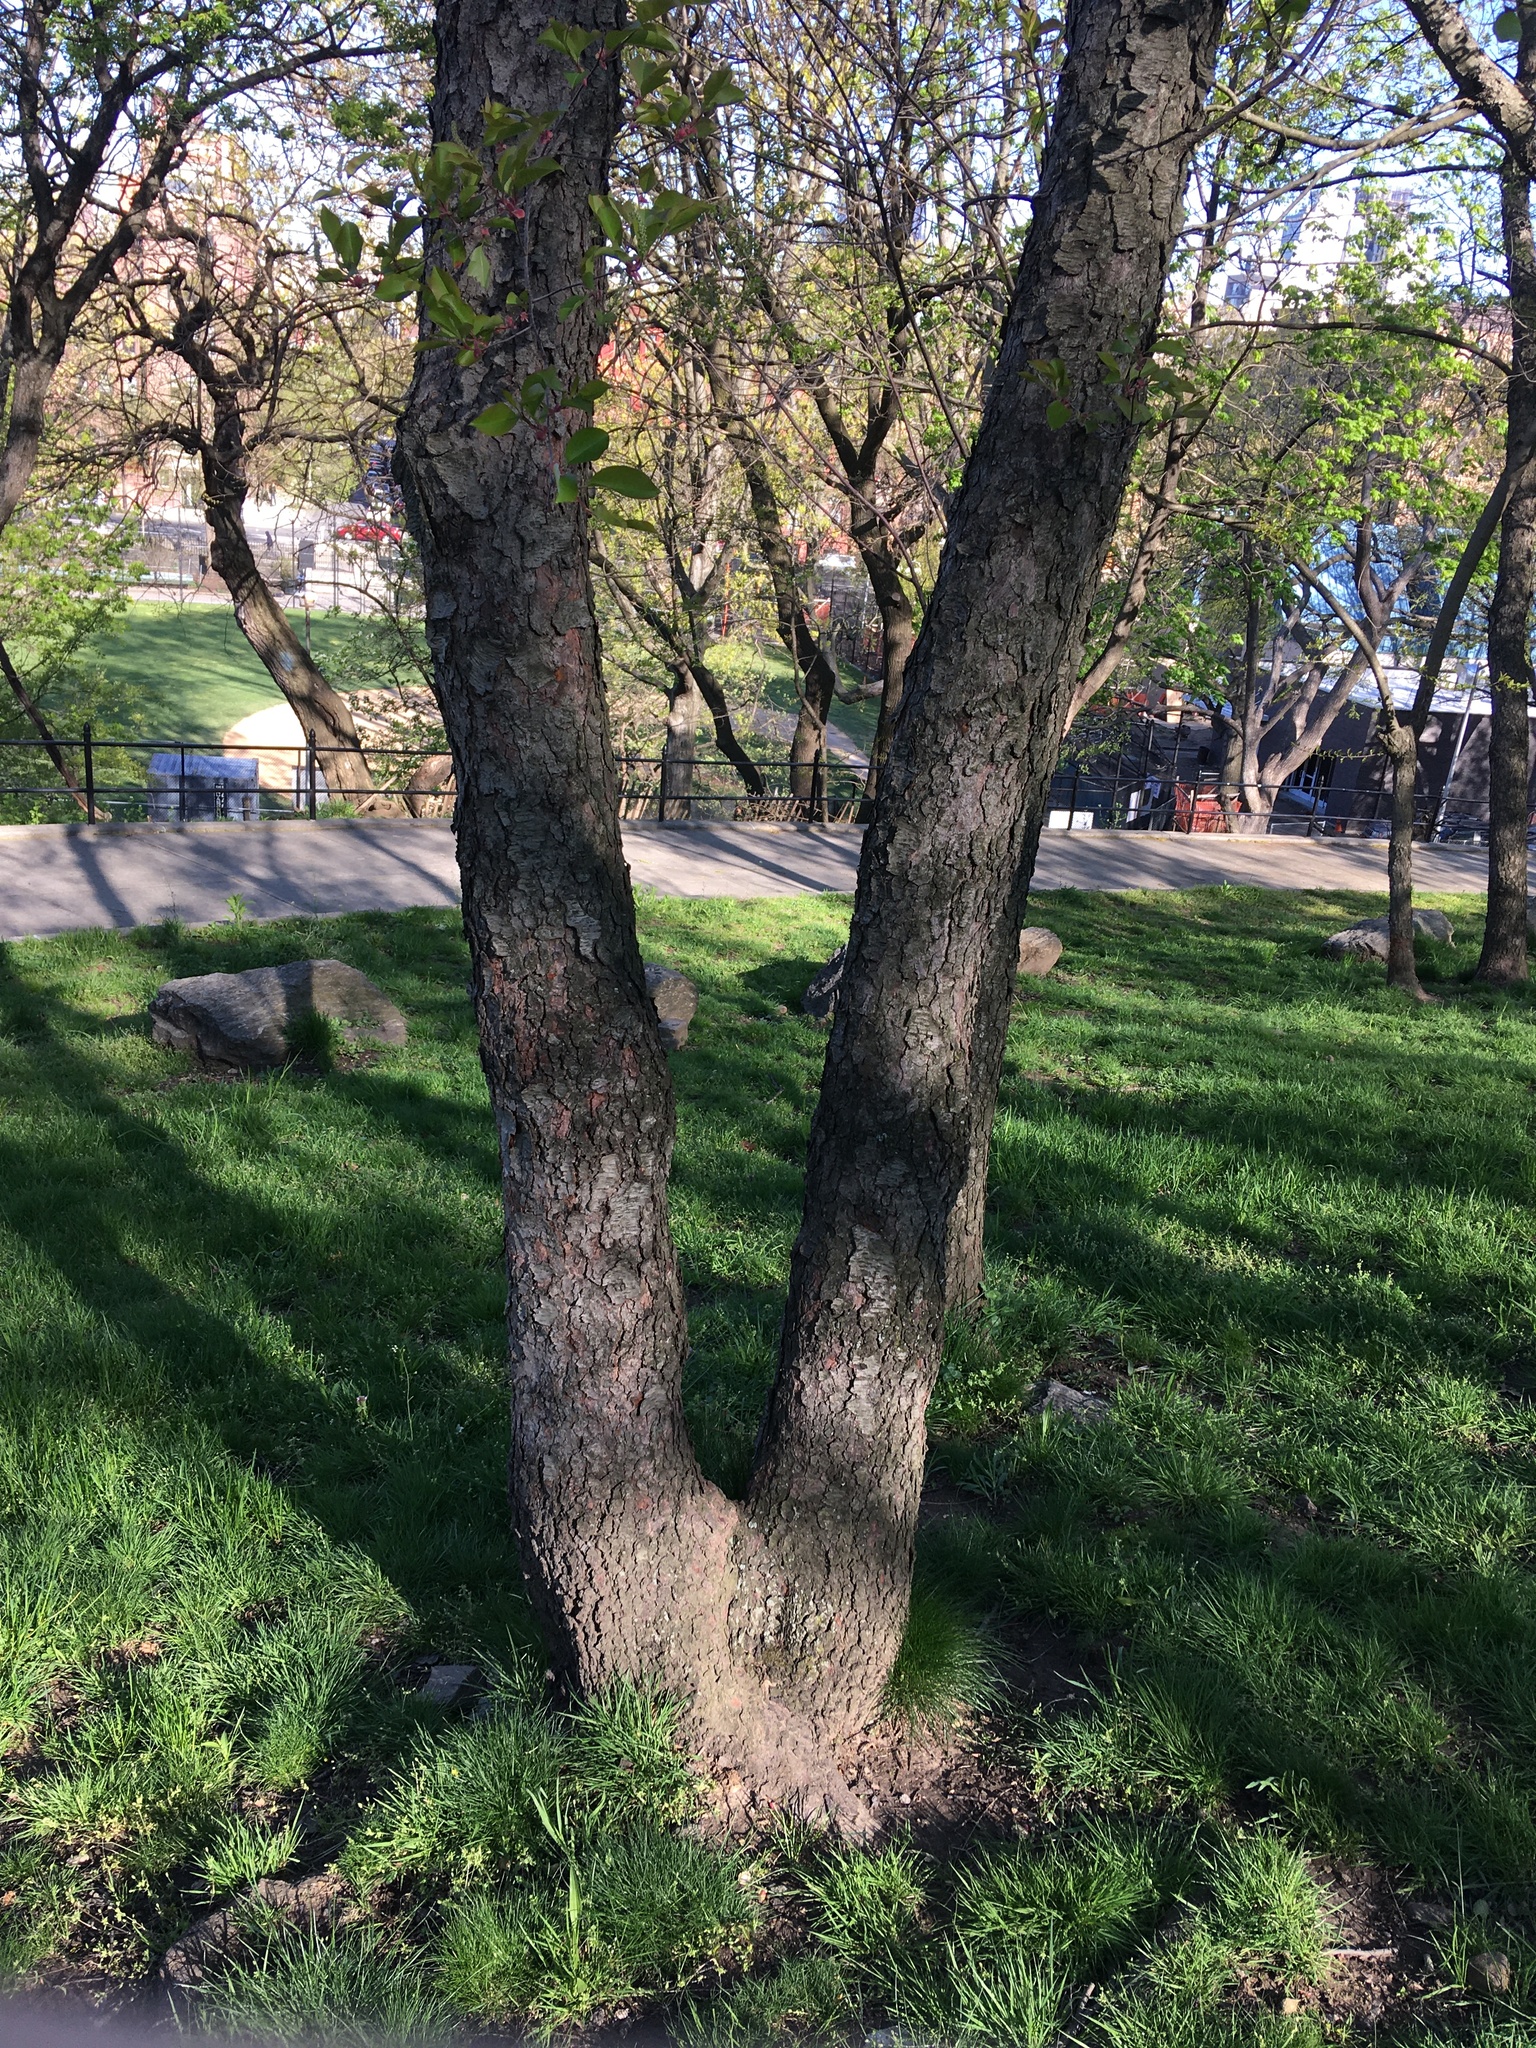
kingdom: Plantae
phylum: Tracheophyta
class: Magnoliopsida
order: Rosales
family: Rosaceae
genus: Prunus
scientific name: Prunus serotina
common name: Black cherry
